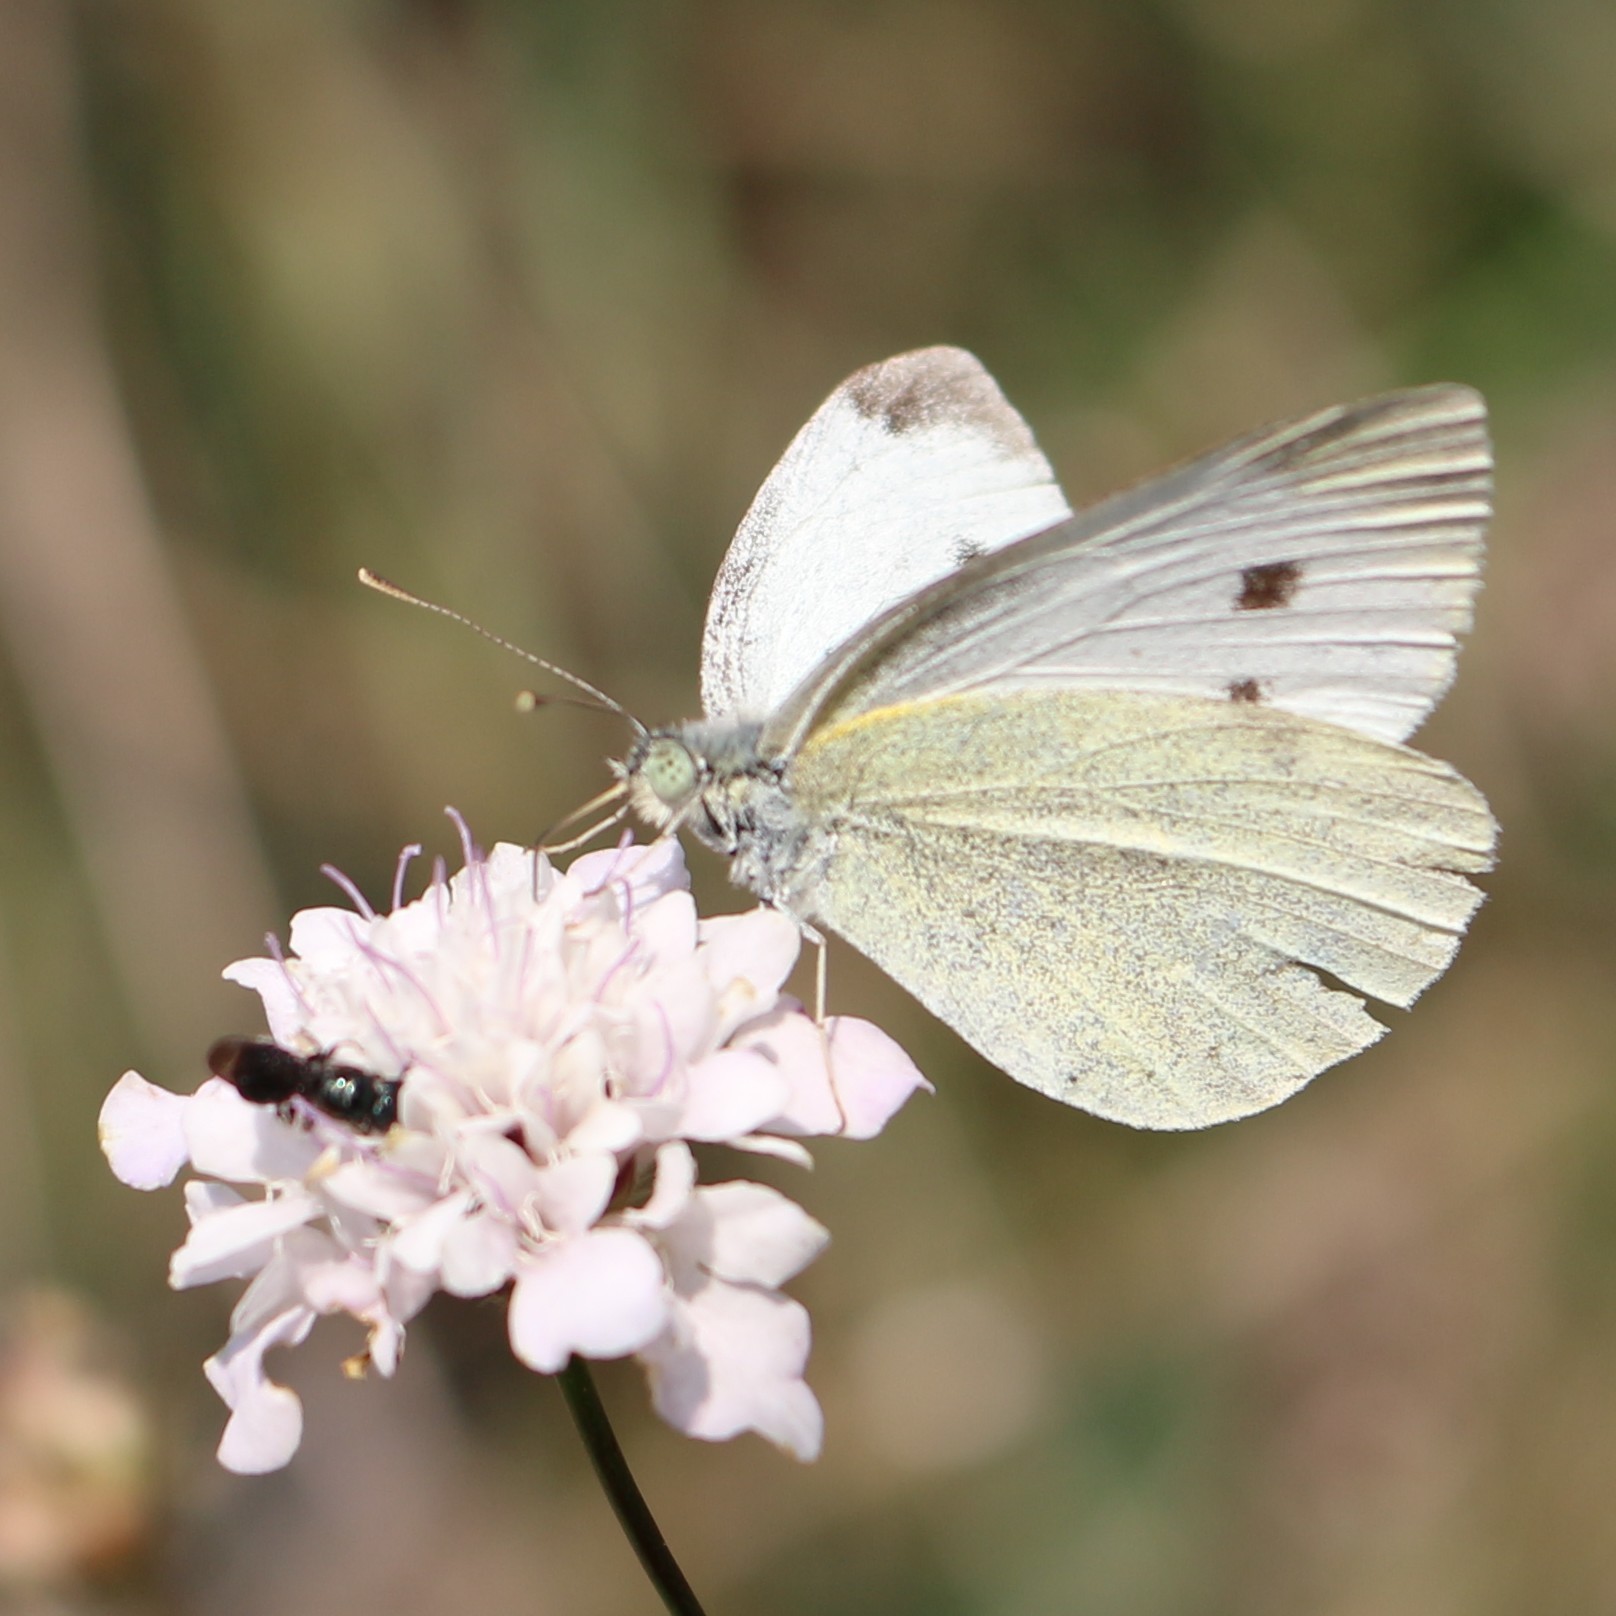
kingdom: Animalia
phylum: Arthropoda
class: Insecta
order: Lepidoptera
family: Pieridae
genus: Pieris
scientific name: Pieris rapae
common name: Small white
